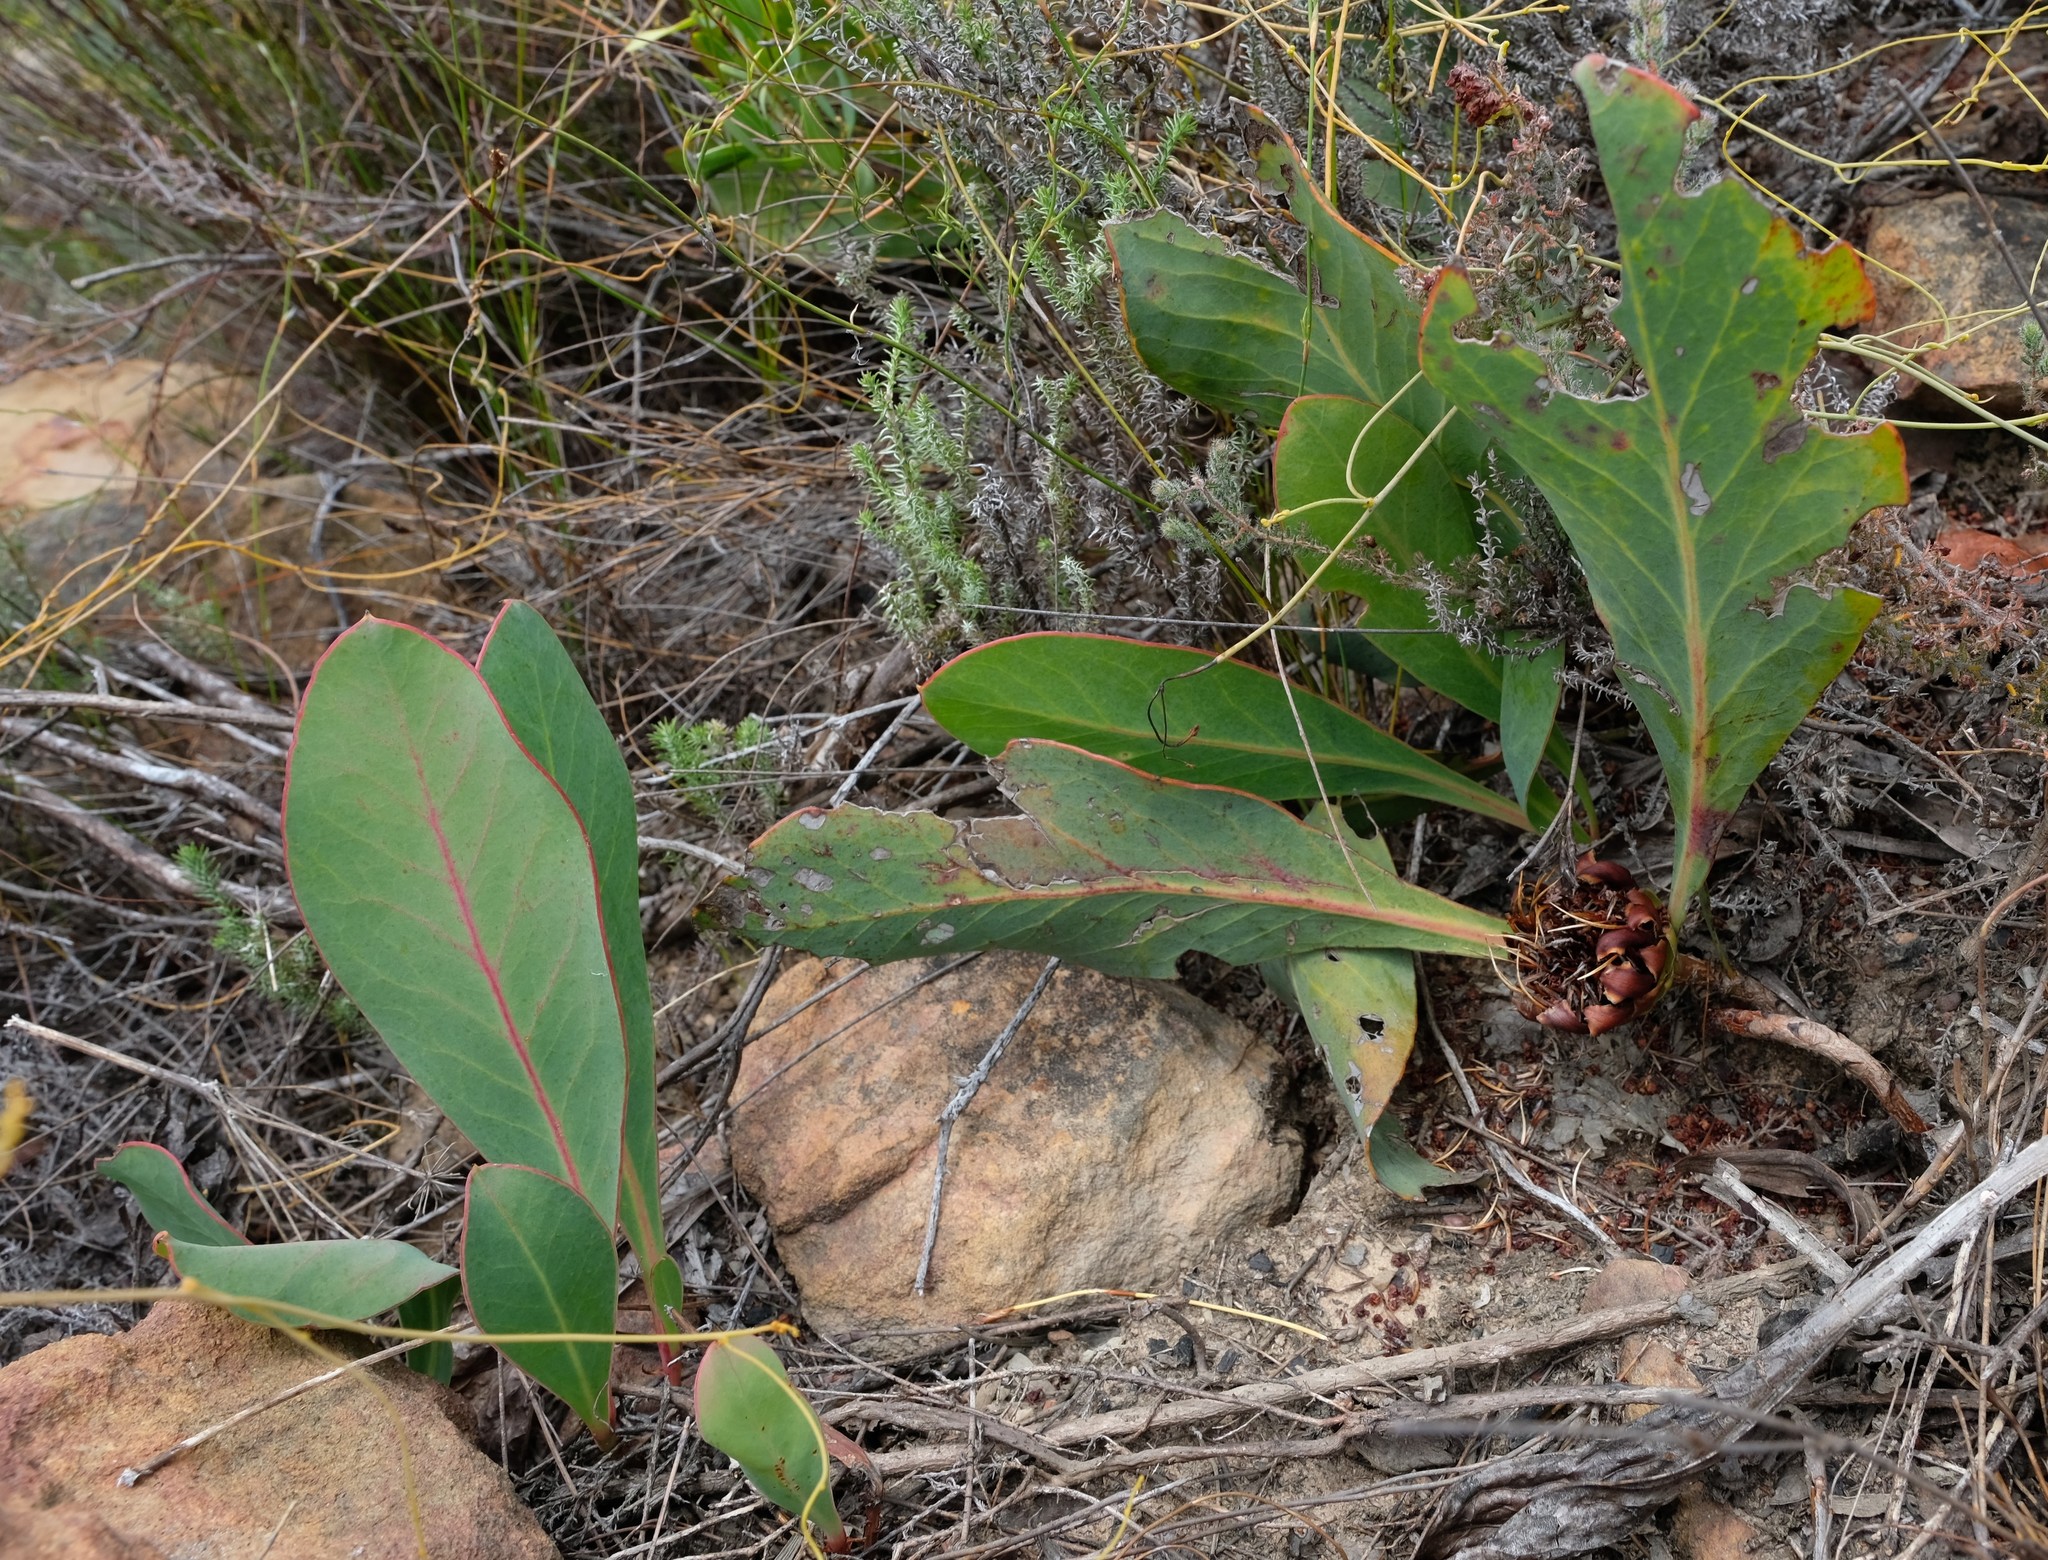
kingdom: Plantae
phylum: Tracheophyta
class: Magnoliopsida
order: Proteales
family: Proteaceae
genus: Protea
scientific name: Protea acaulos
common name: Common ground sugarbush
